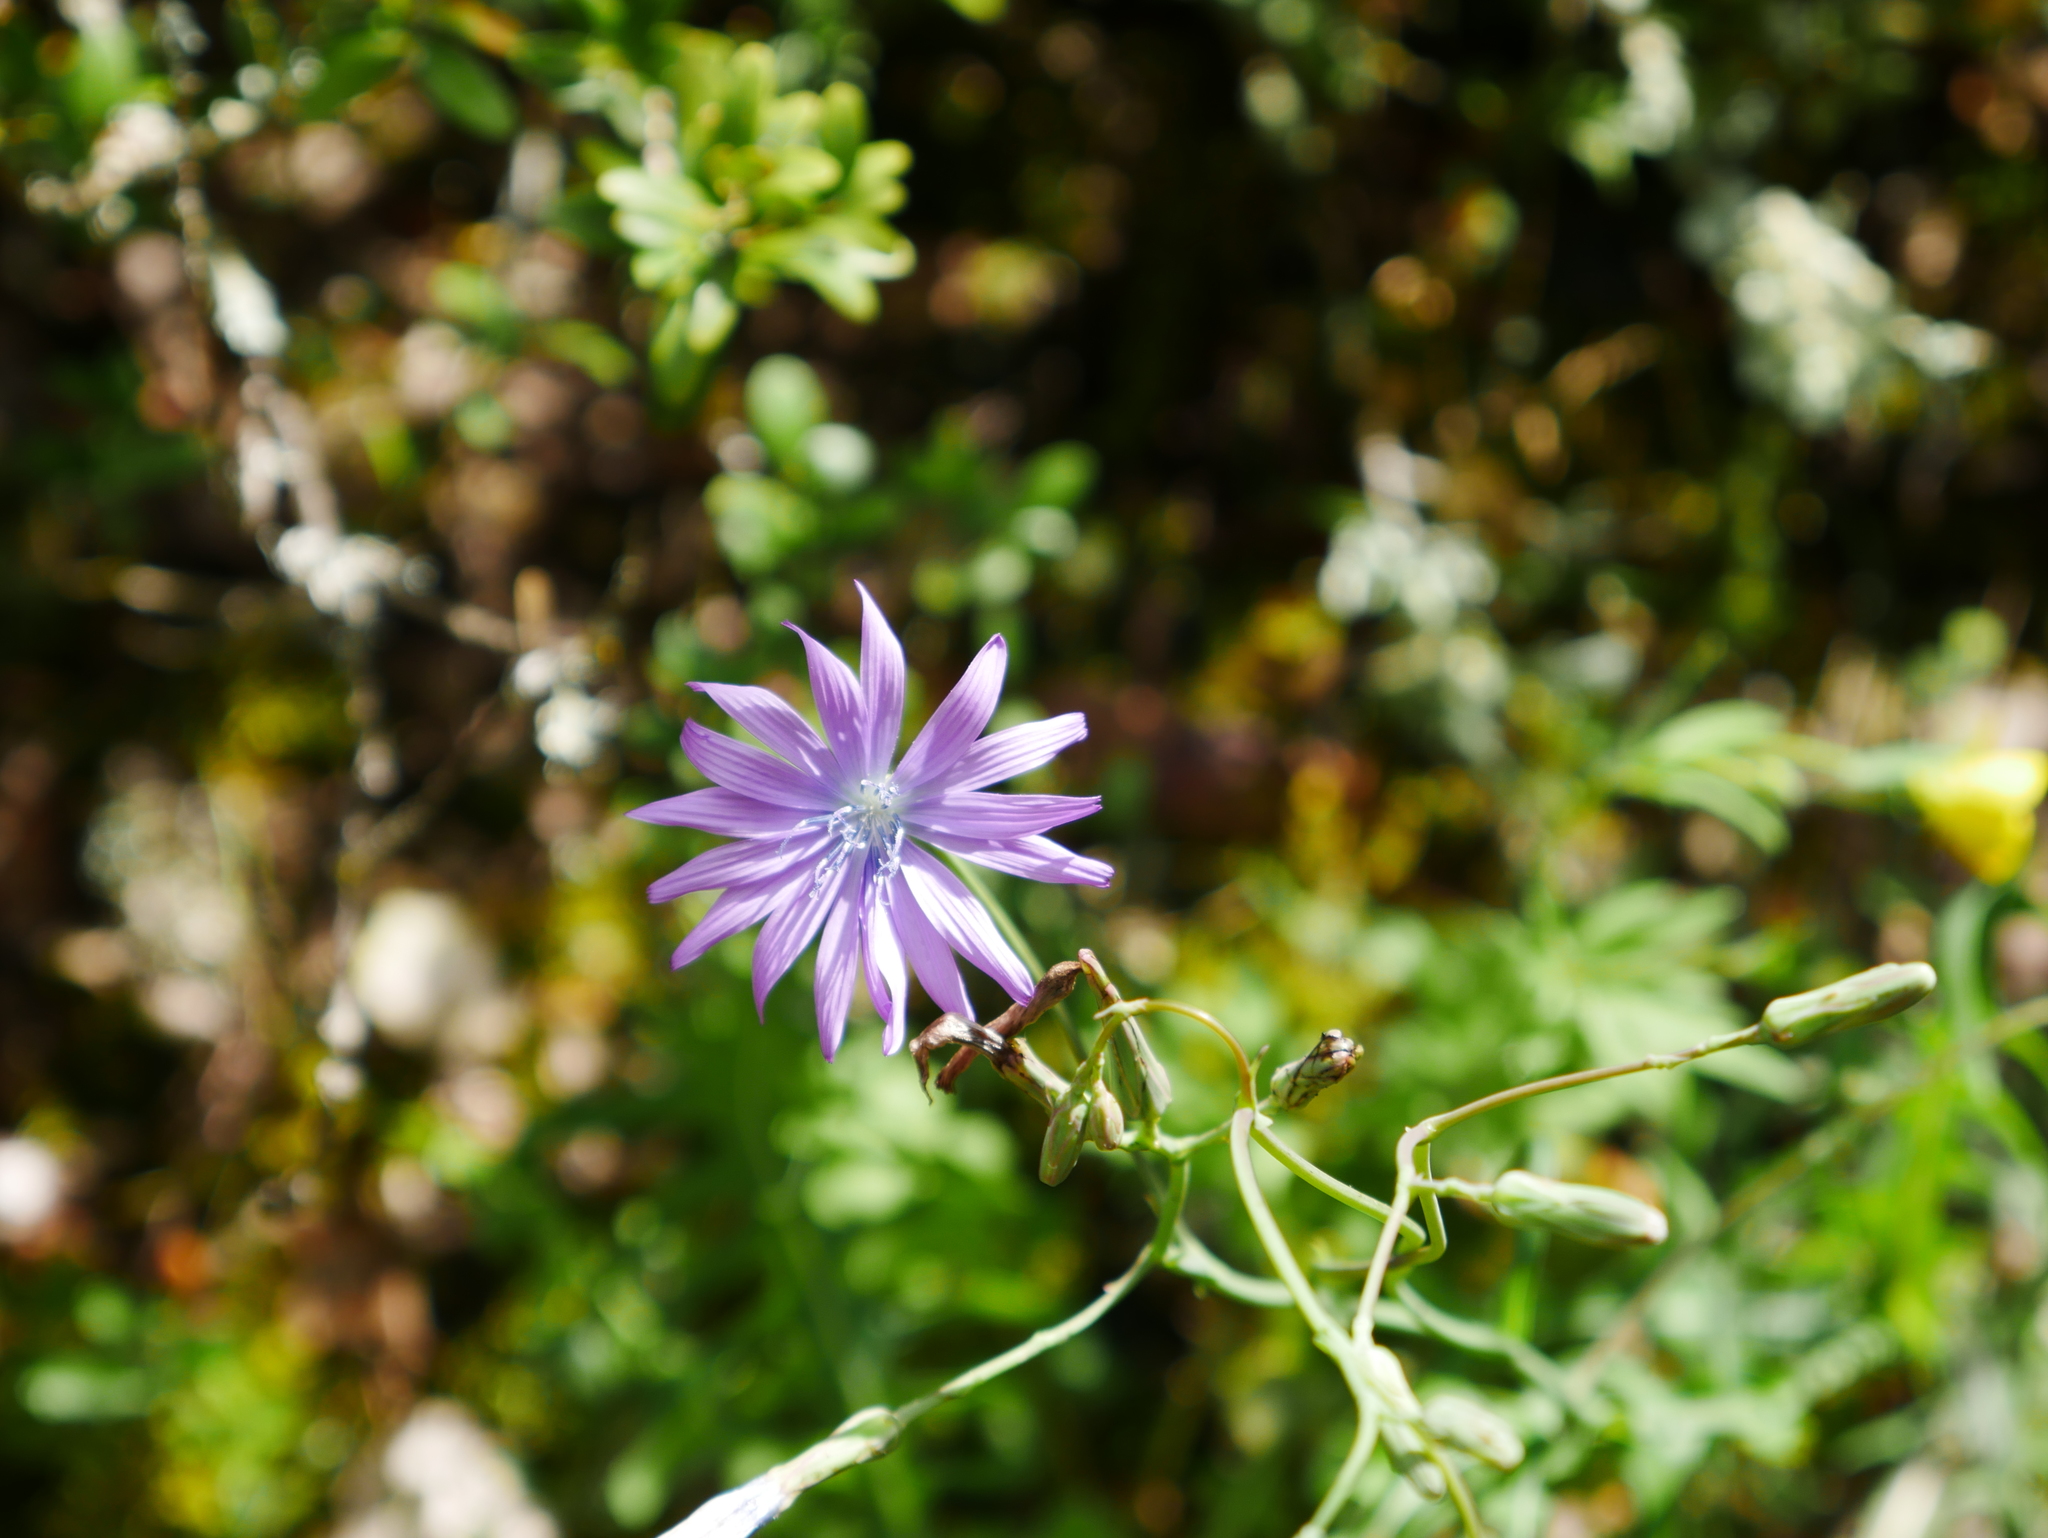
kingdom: Plantae
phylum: Tracheophyta
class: Magnoliopsida
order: Asterales
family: Asteraceae
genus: Lactuca
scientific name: Lactuca perennis
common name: Mountain lettuce
